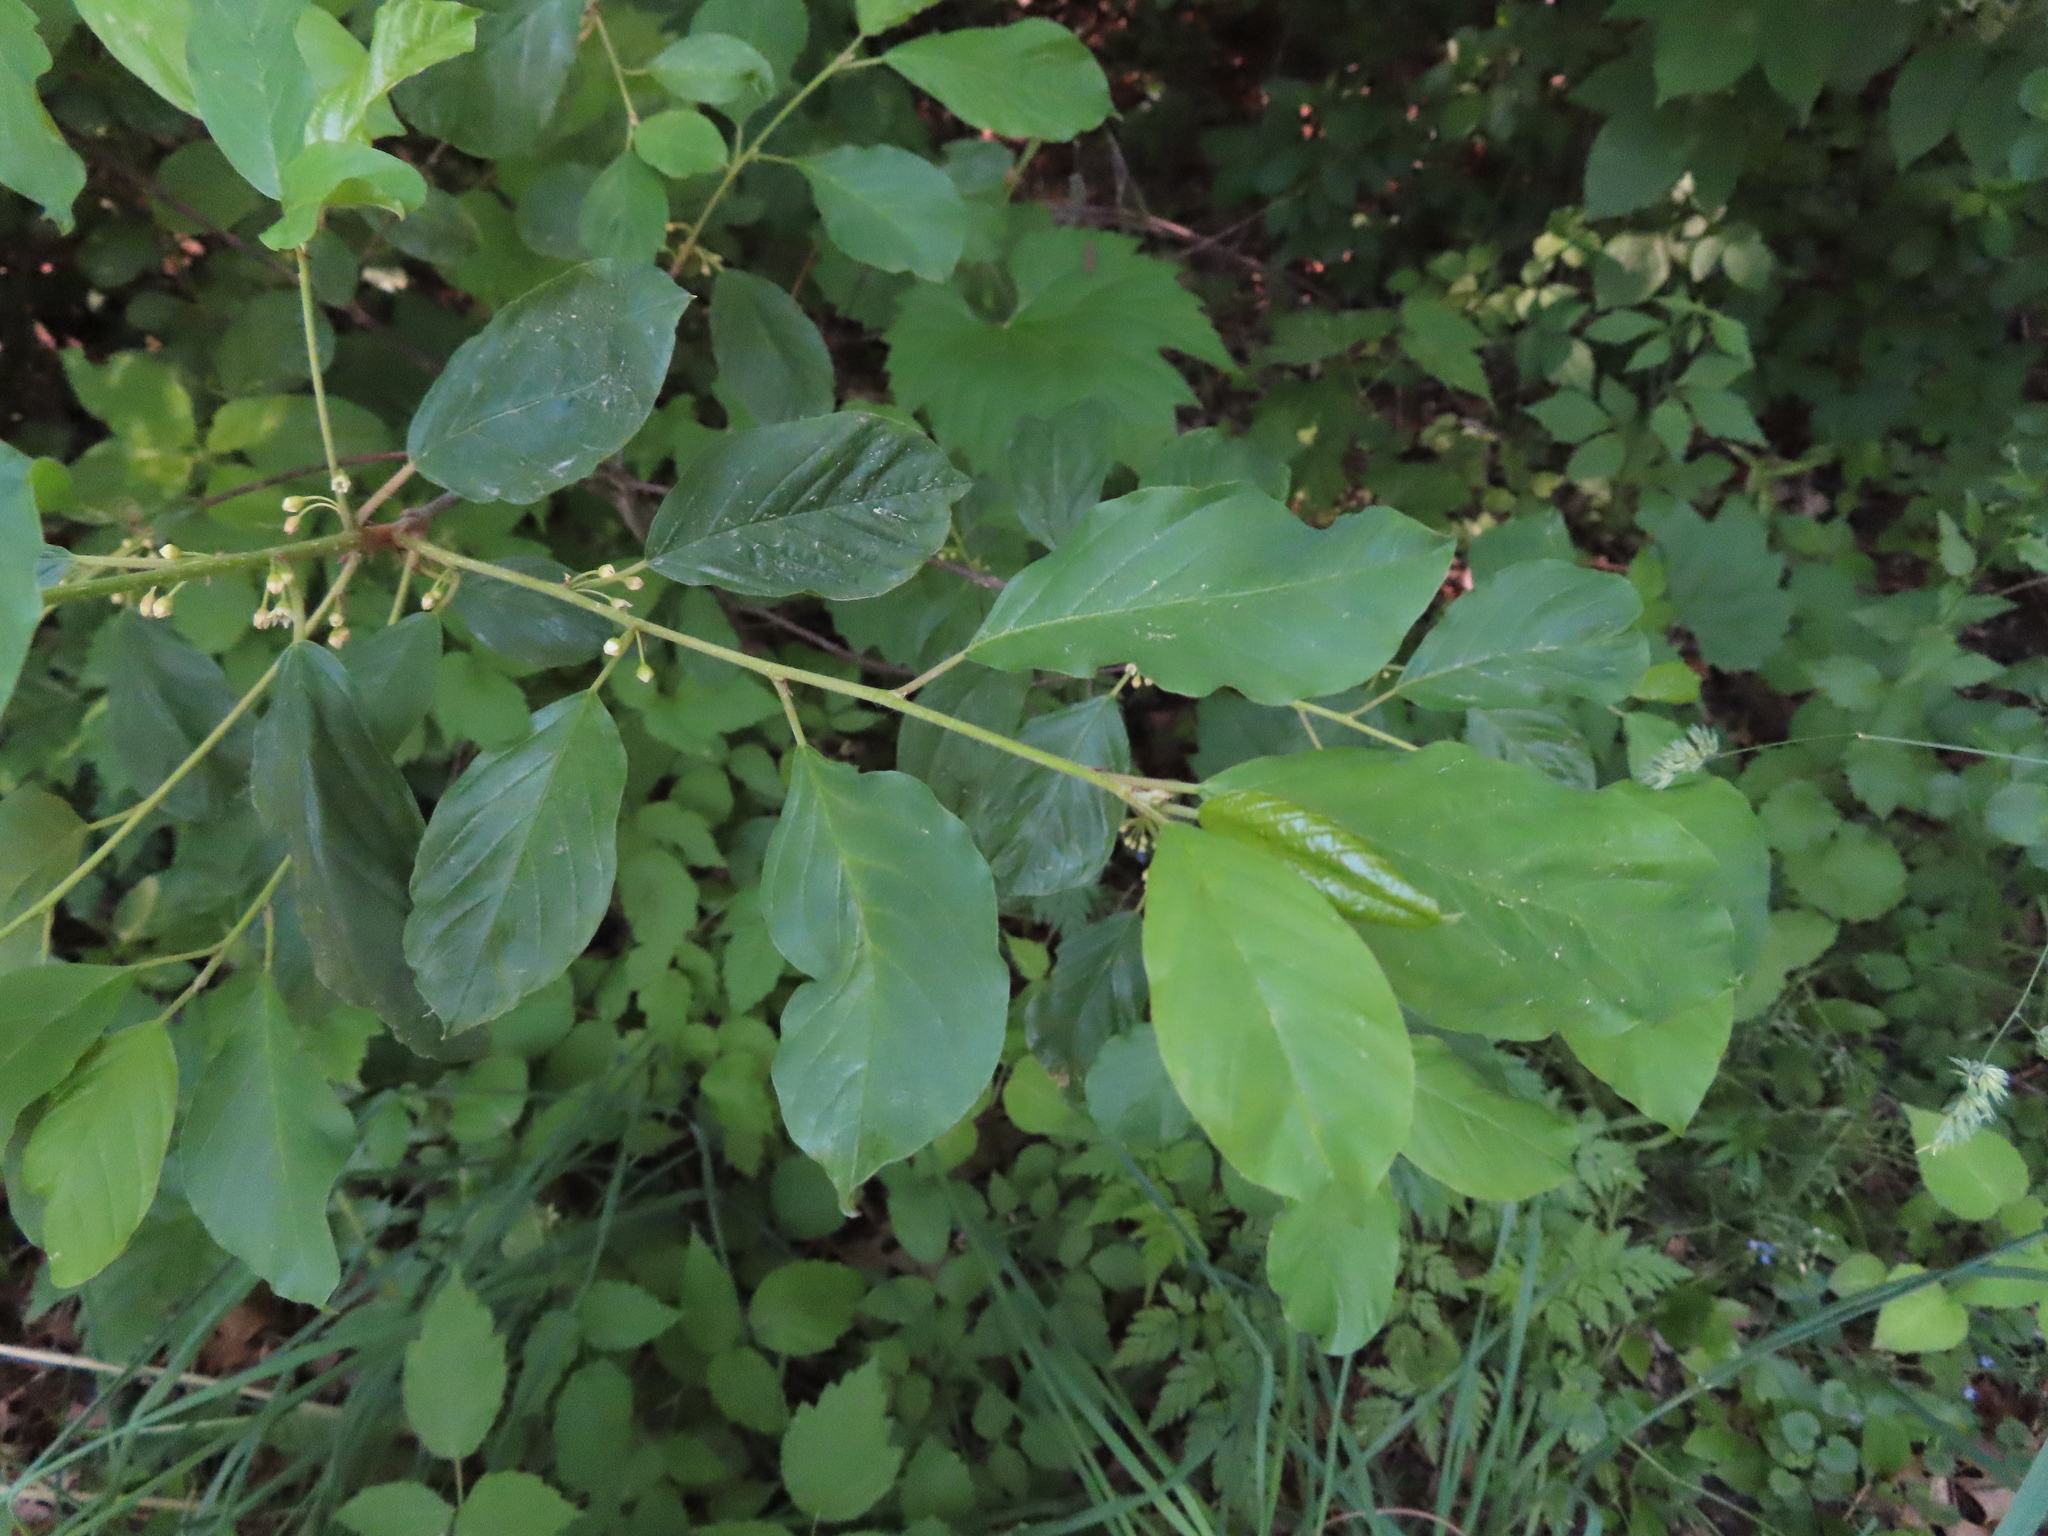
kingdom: Plantae
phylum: Tracheophyta
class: Magnoliopsida
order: Rosales
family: Rhamnaceae
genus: Frangula
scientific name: Frangula alnus
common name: Alder buckthorn
